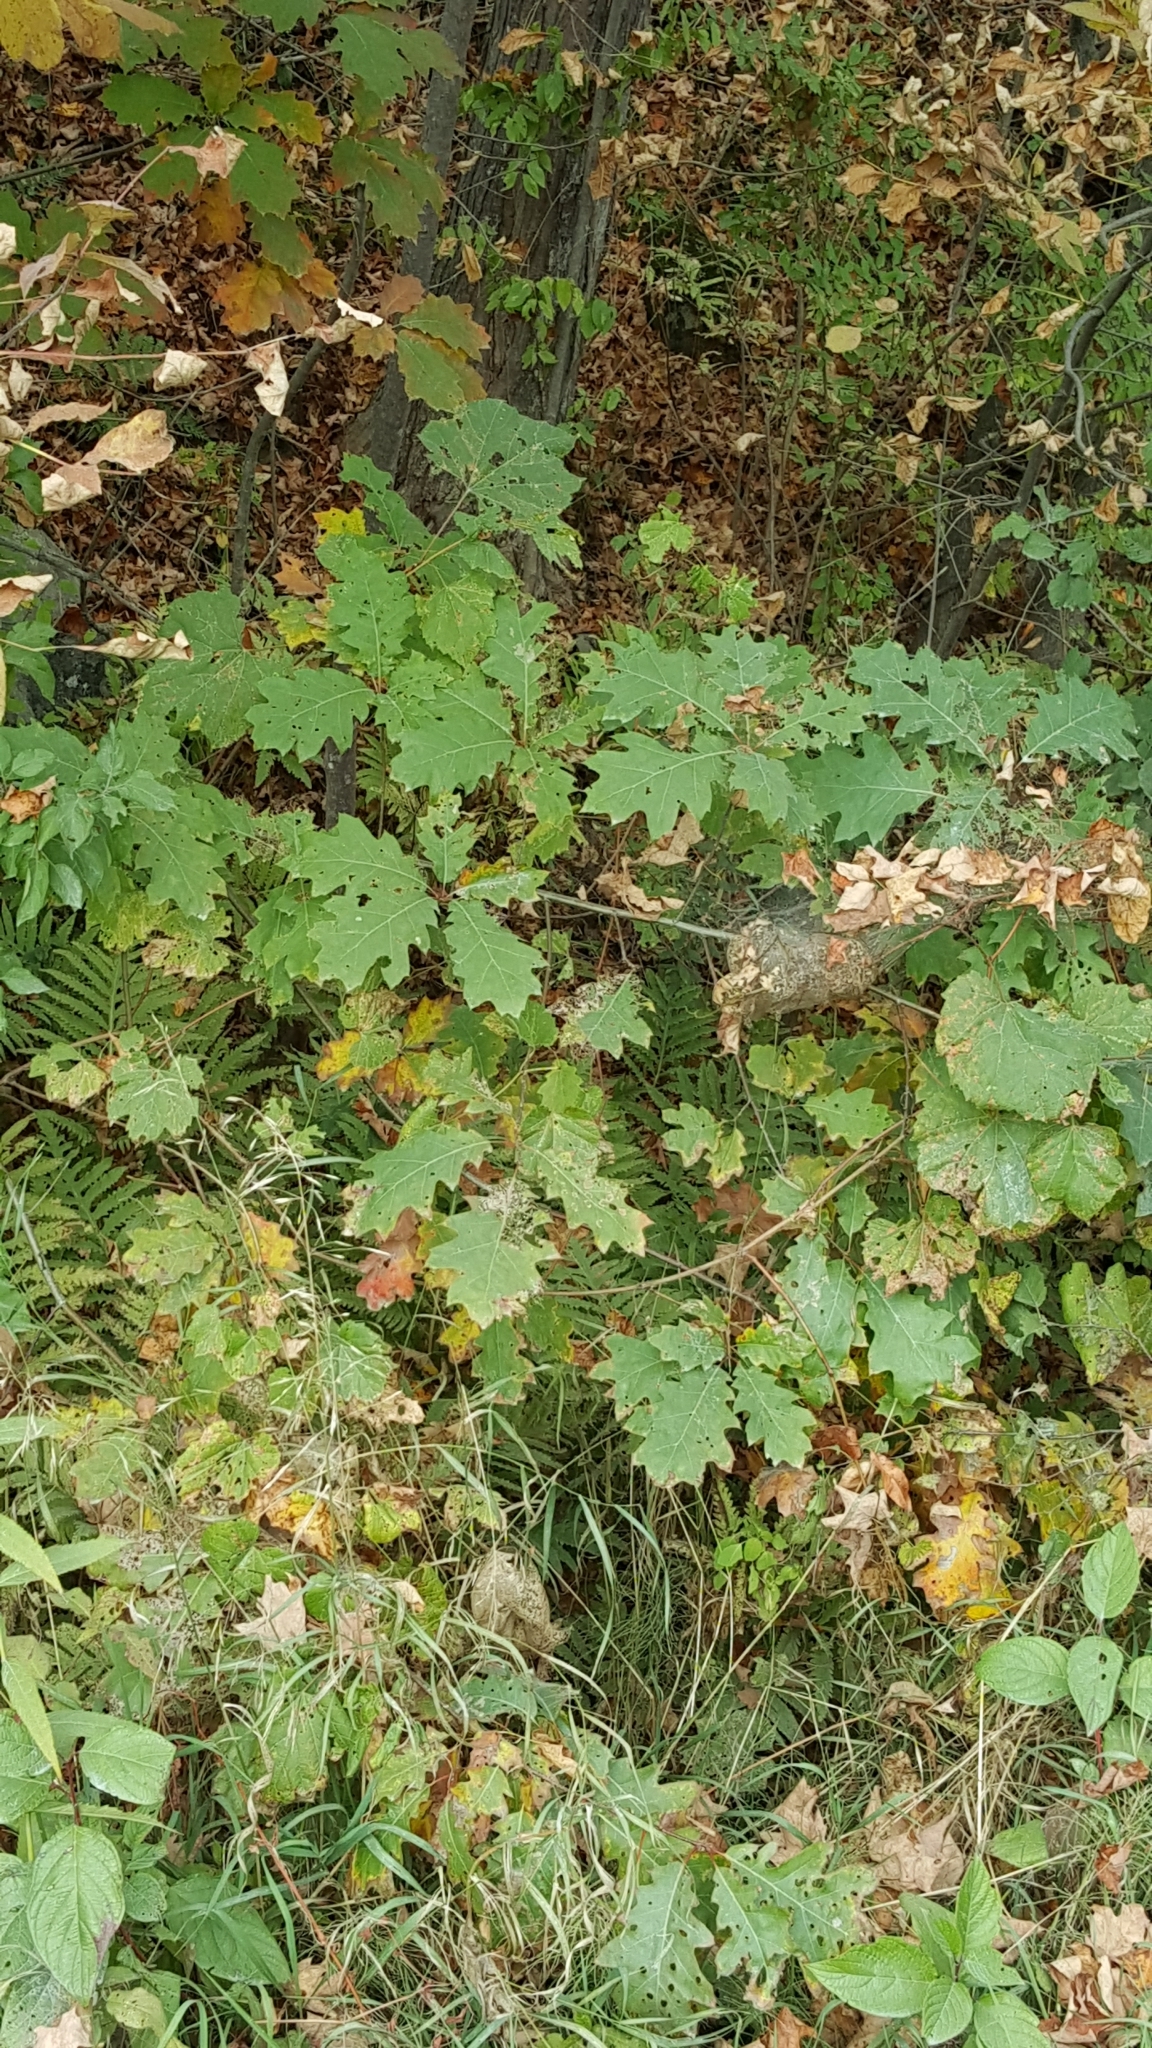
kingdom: Plantae
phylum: Tracheophyta
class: Magnoliopsida
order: Fagales
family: Fagaceae
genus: Quercus
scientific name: Quercus rubra
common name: Red oak
